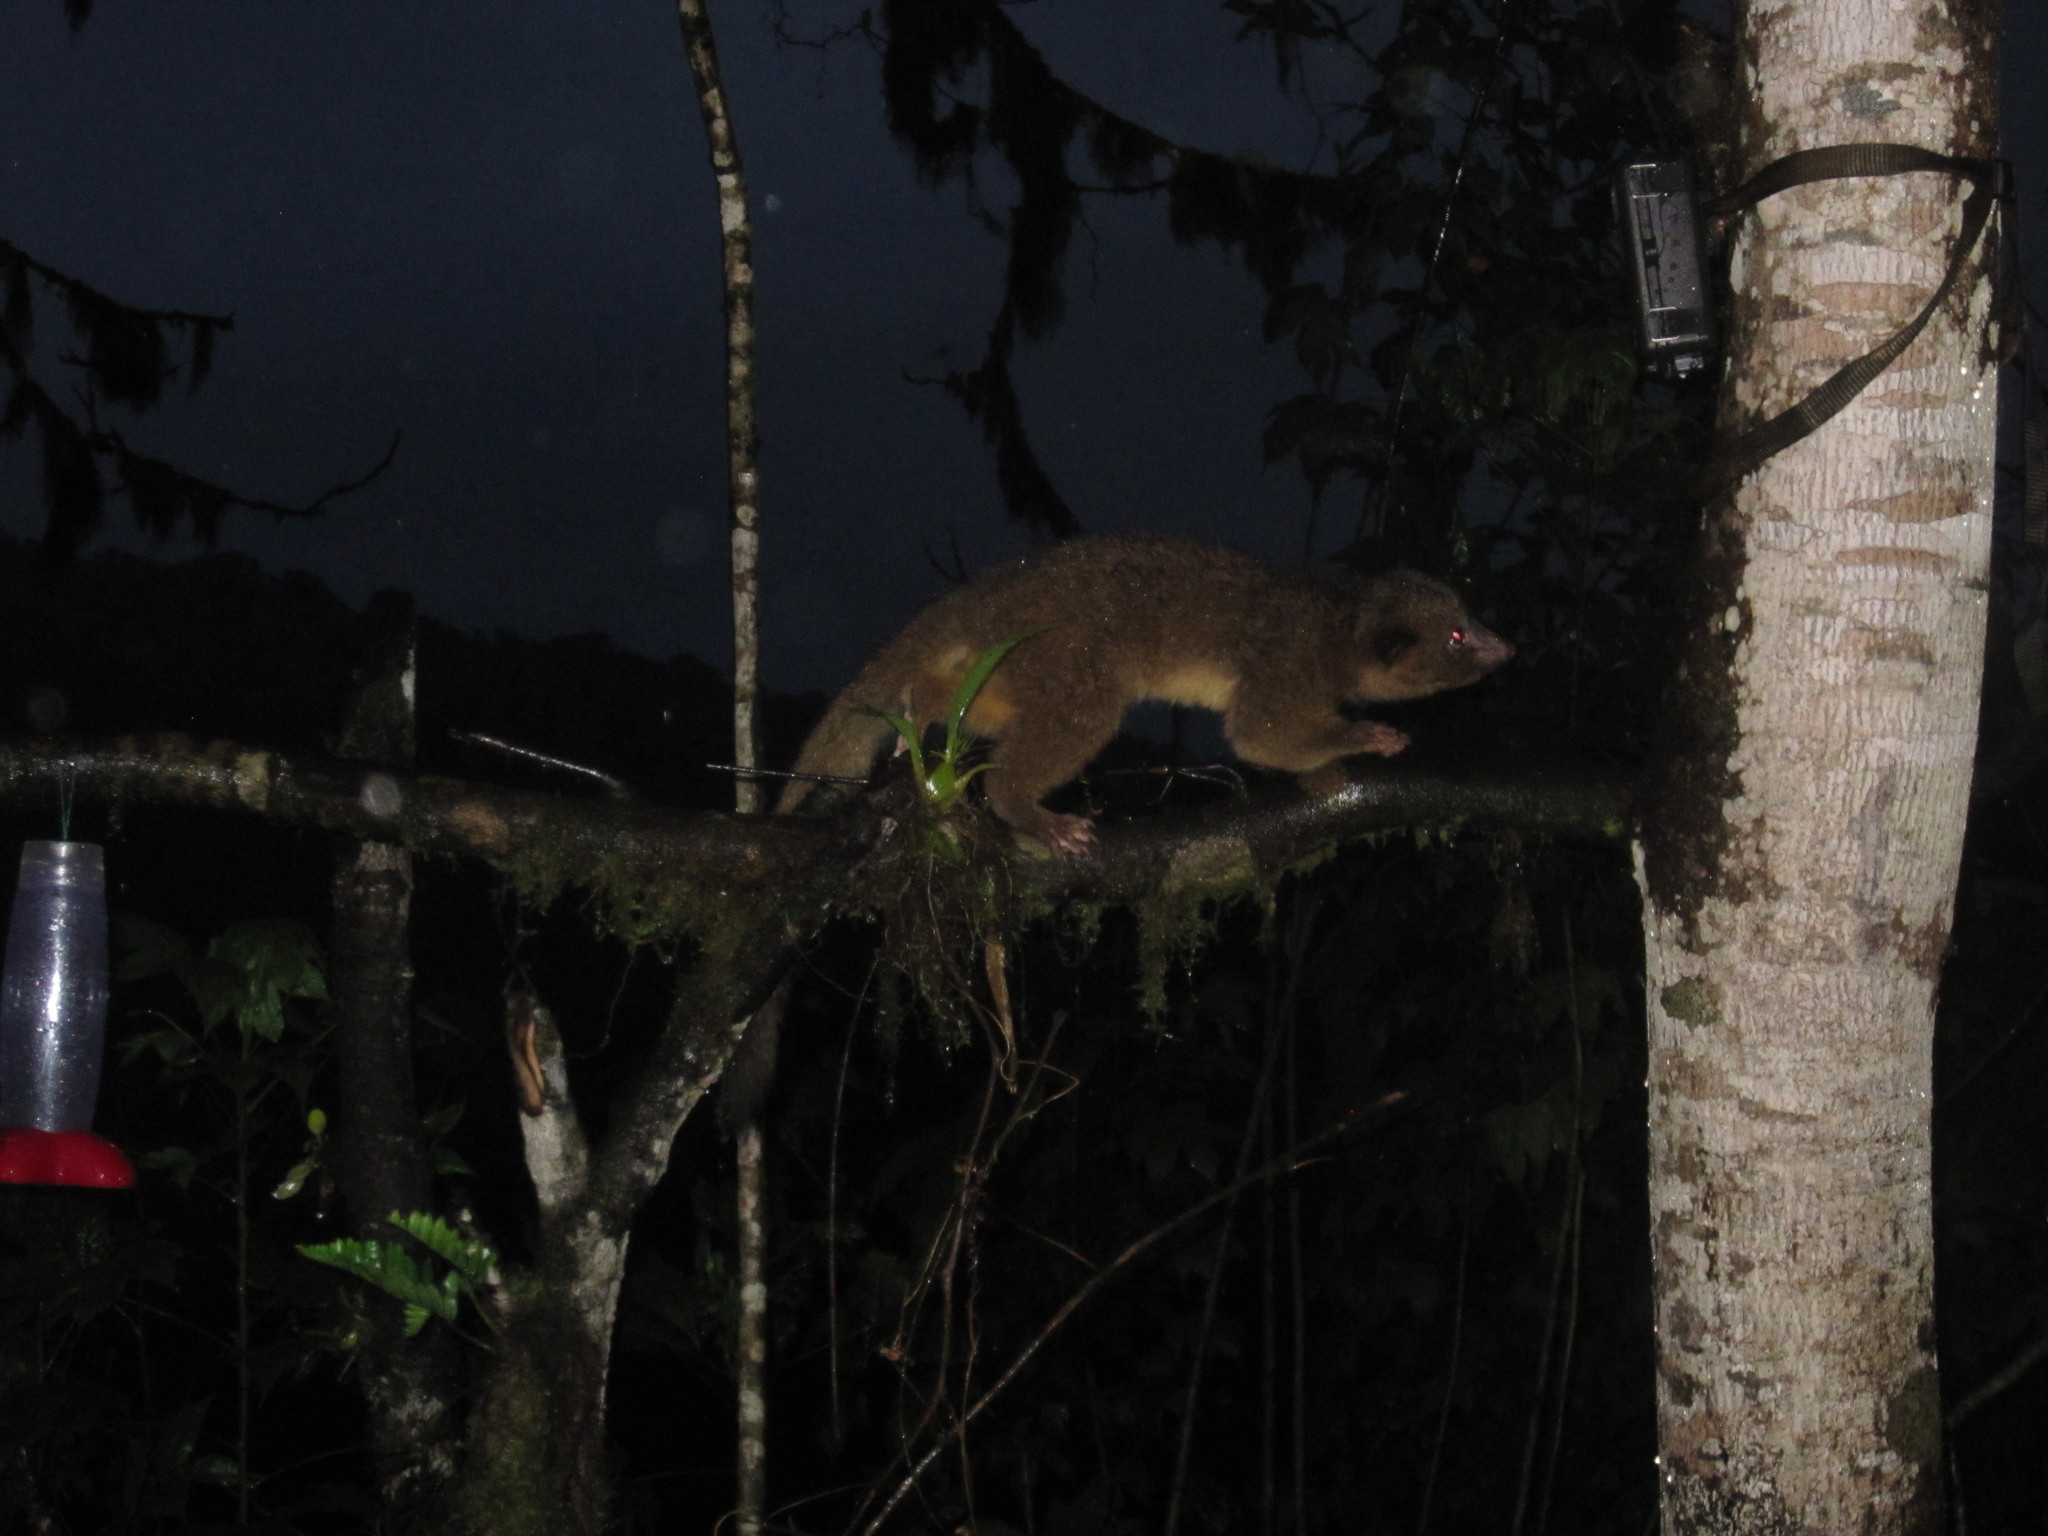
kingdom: Animalia
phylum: Chordata
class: Mammalia
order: Carnivora
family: Procyonidae
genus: Bassaricyon
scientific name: Bassaricyon neblina
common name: Olinguito
